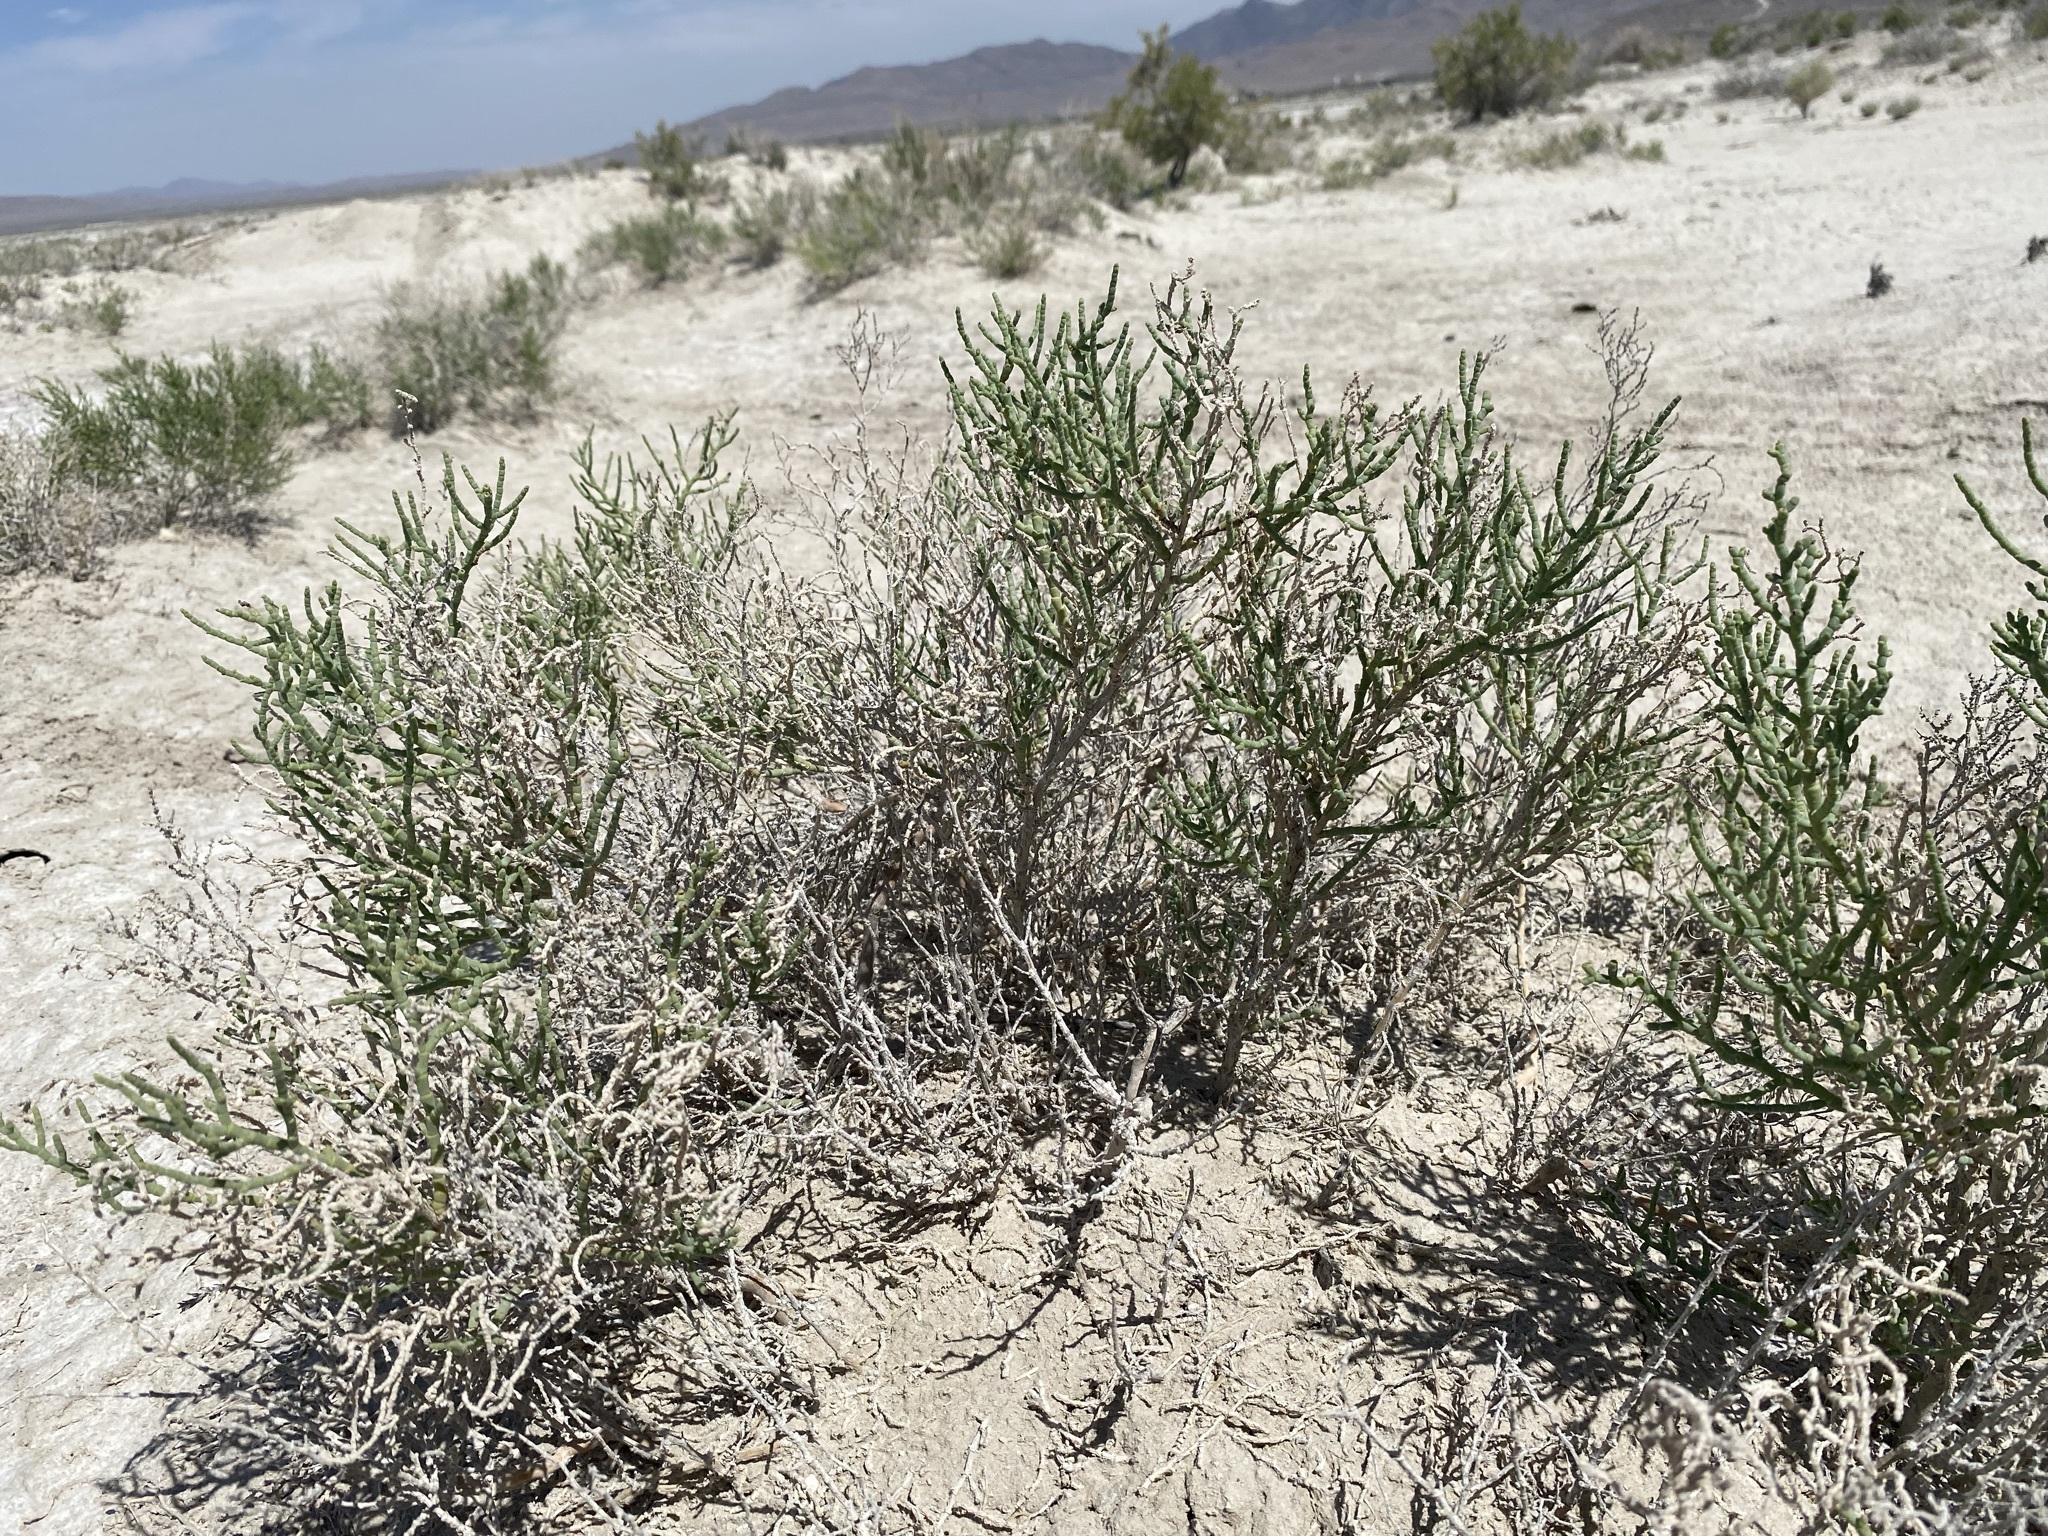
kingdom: Plantae
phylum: Tracheophyta
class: Magnoliopsida
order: Caryophyllales
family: Amaranthaceae
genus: Allenrolfea
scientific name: Allenrolfea occidentalis
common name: Iodine-bush
